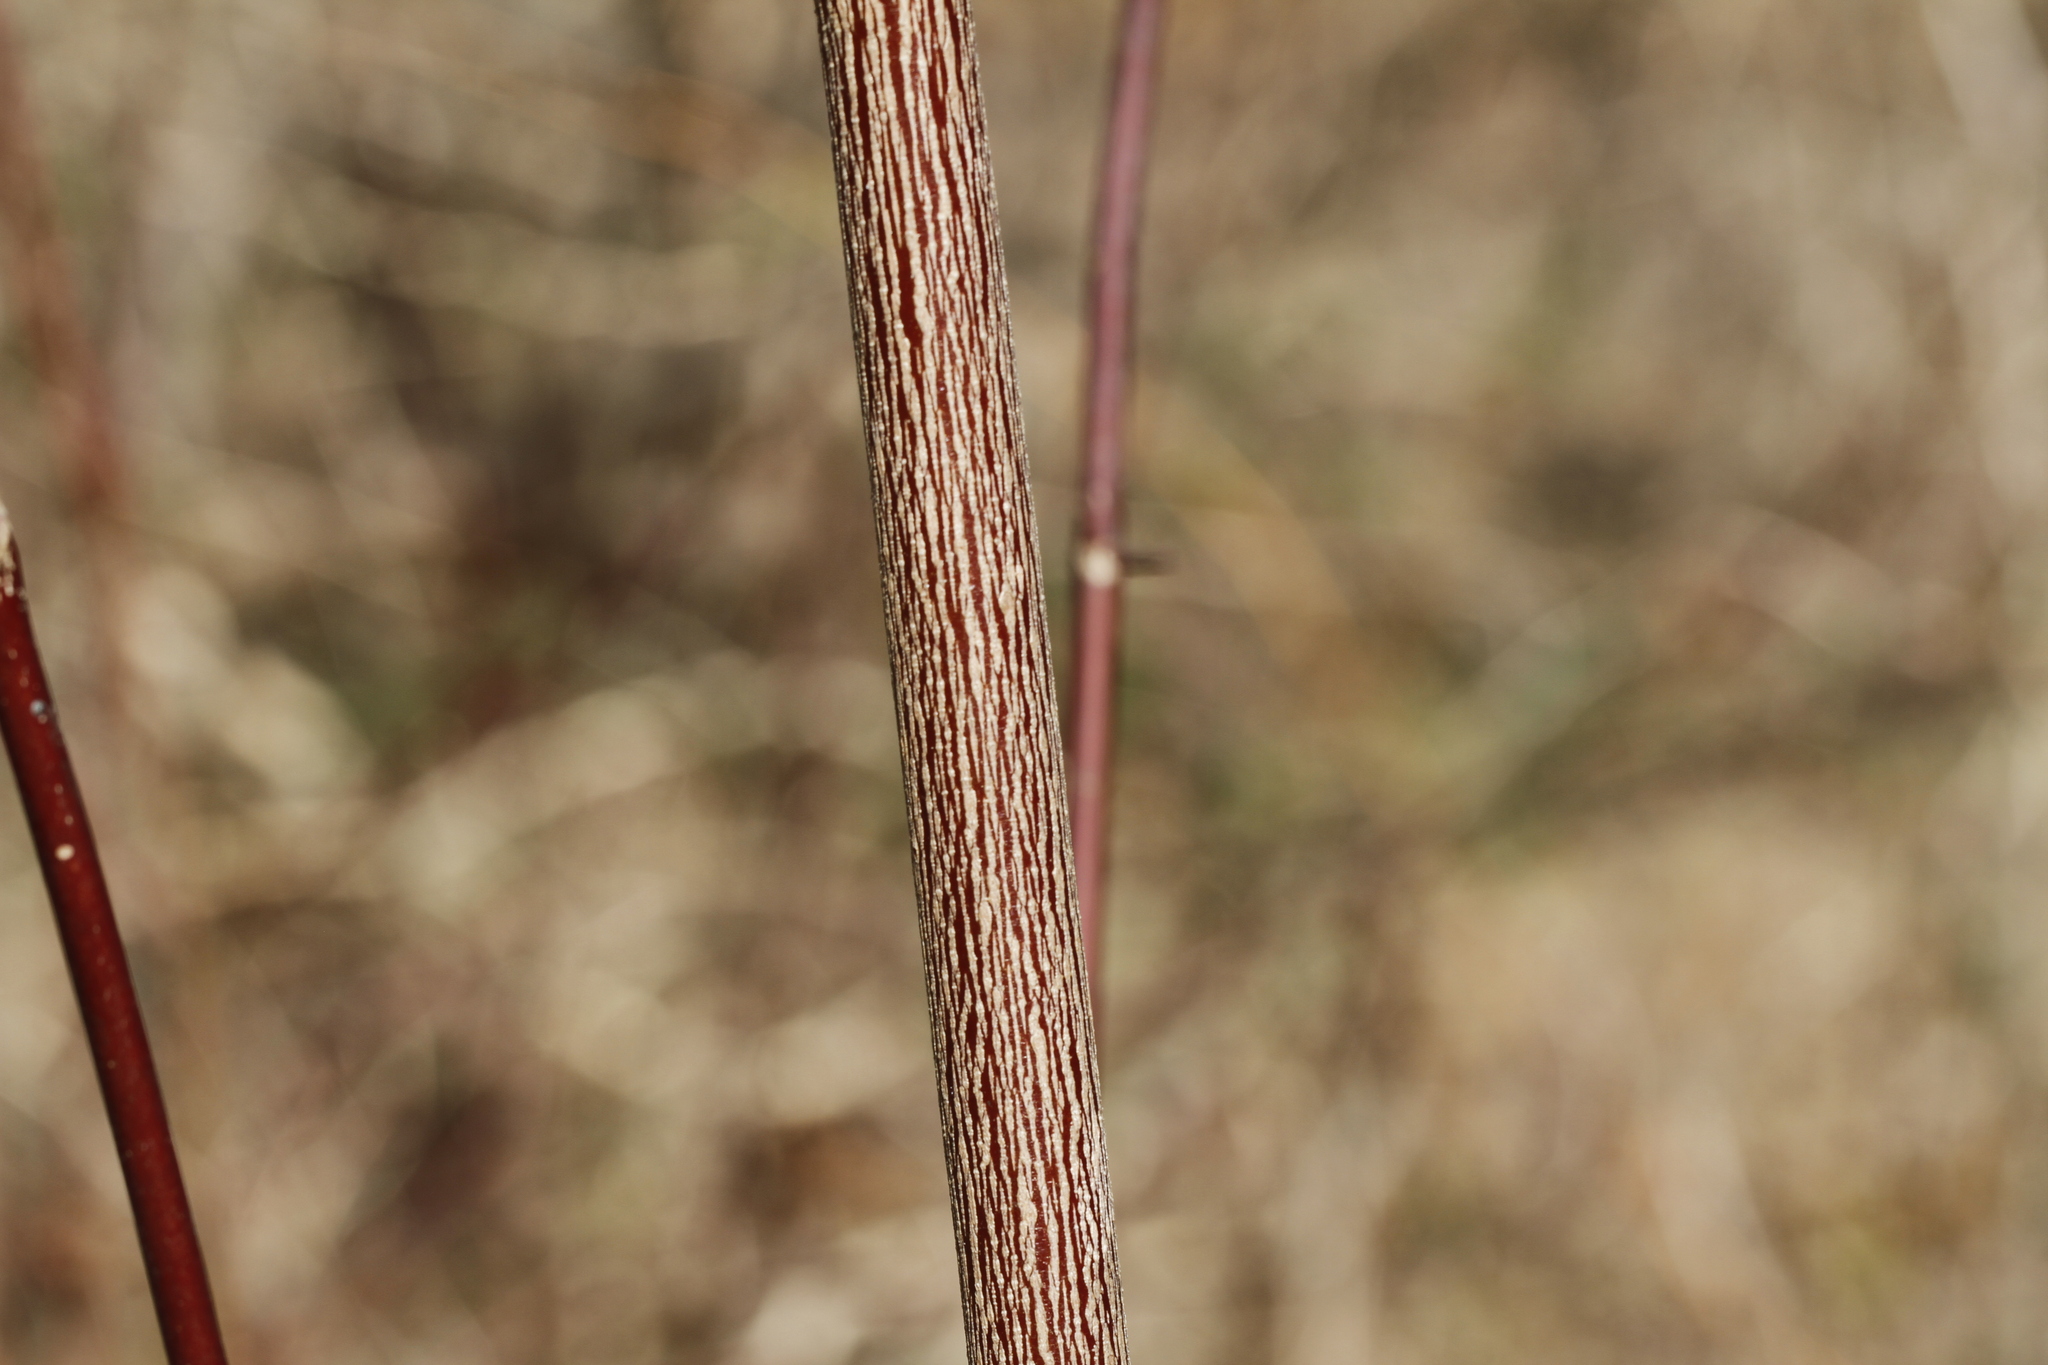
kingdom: Plantae
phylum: Tracheophyta
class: Magnoliopsida
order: Cornales
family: Cornaceae
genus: Cornus
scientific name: Cornus amomum
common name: Silky dogwood
